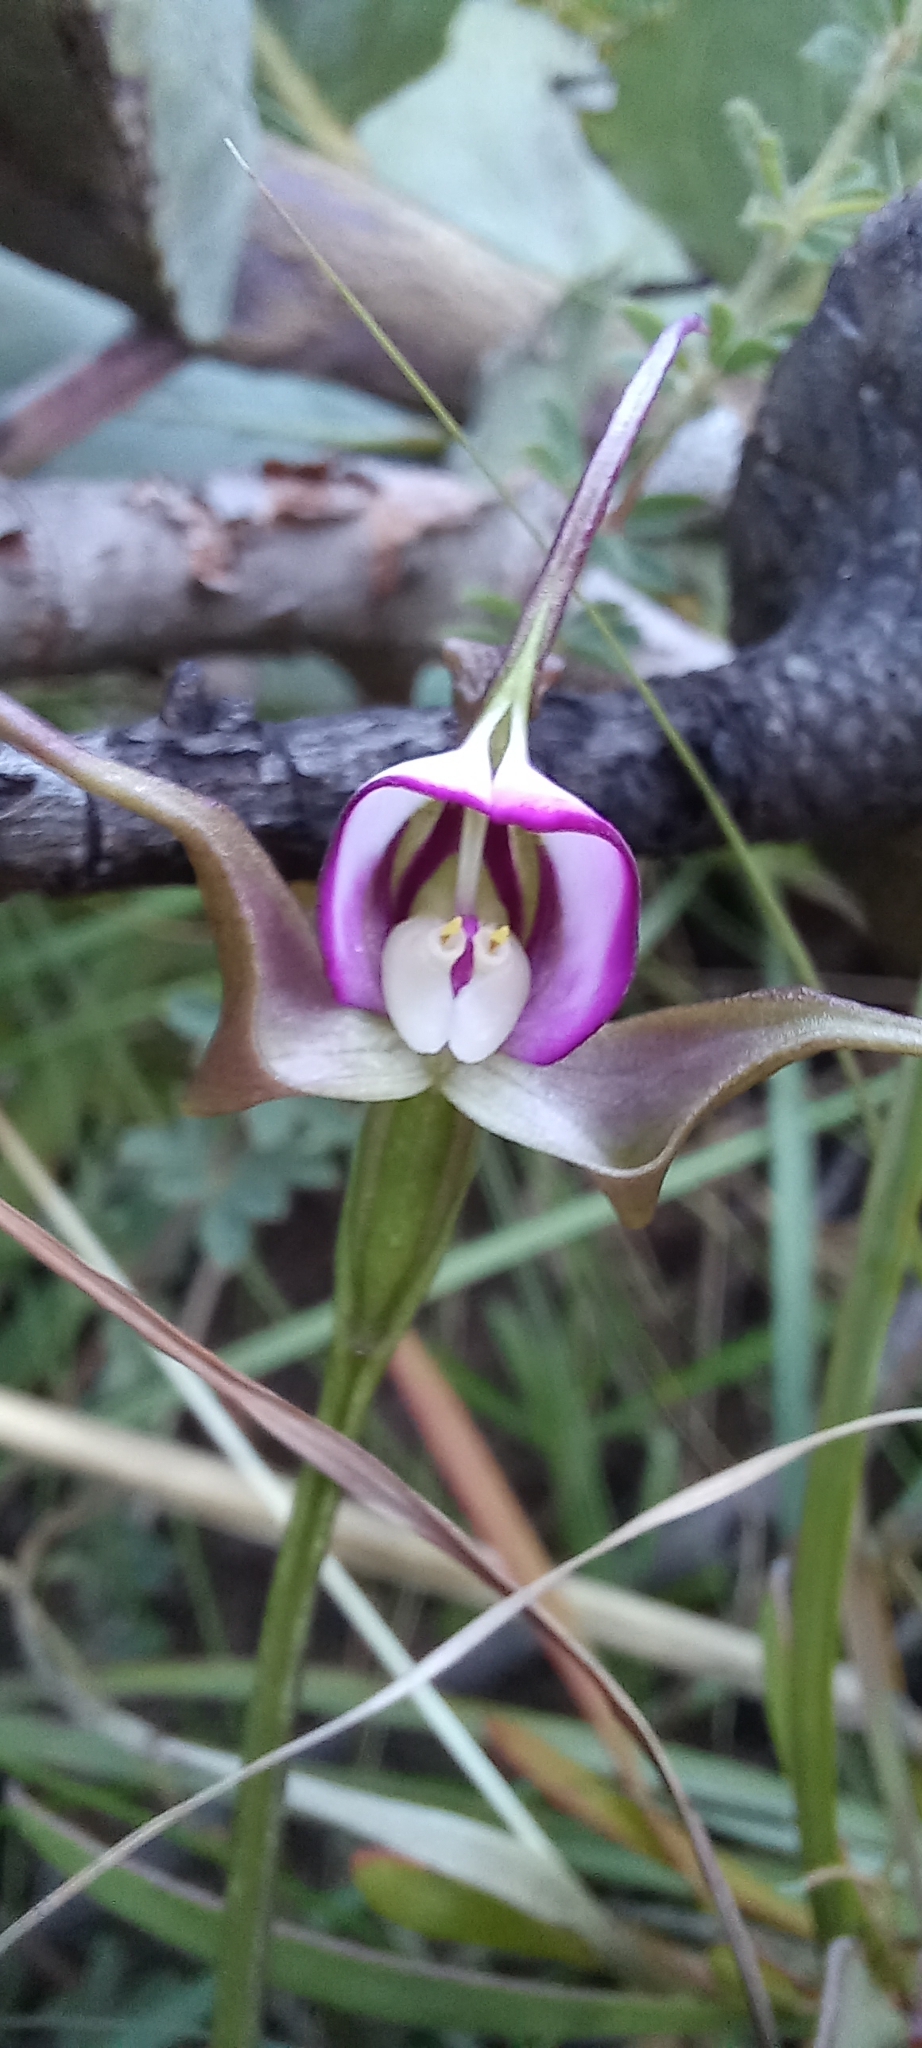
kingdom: Plantae
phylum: Tracheophyta
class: Liliopsida
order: Asparagales
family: Orchidaceae
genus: Disperis
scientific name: Disperis capensis
